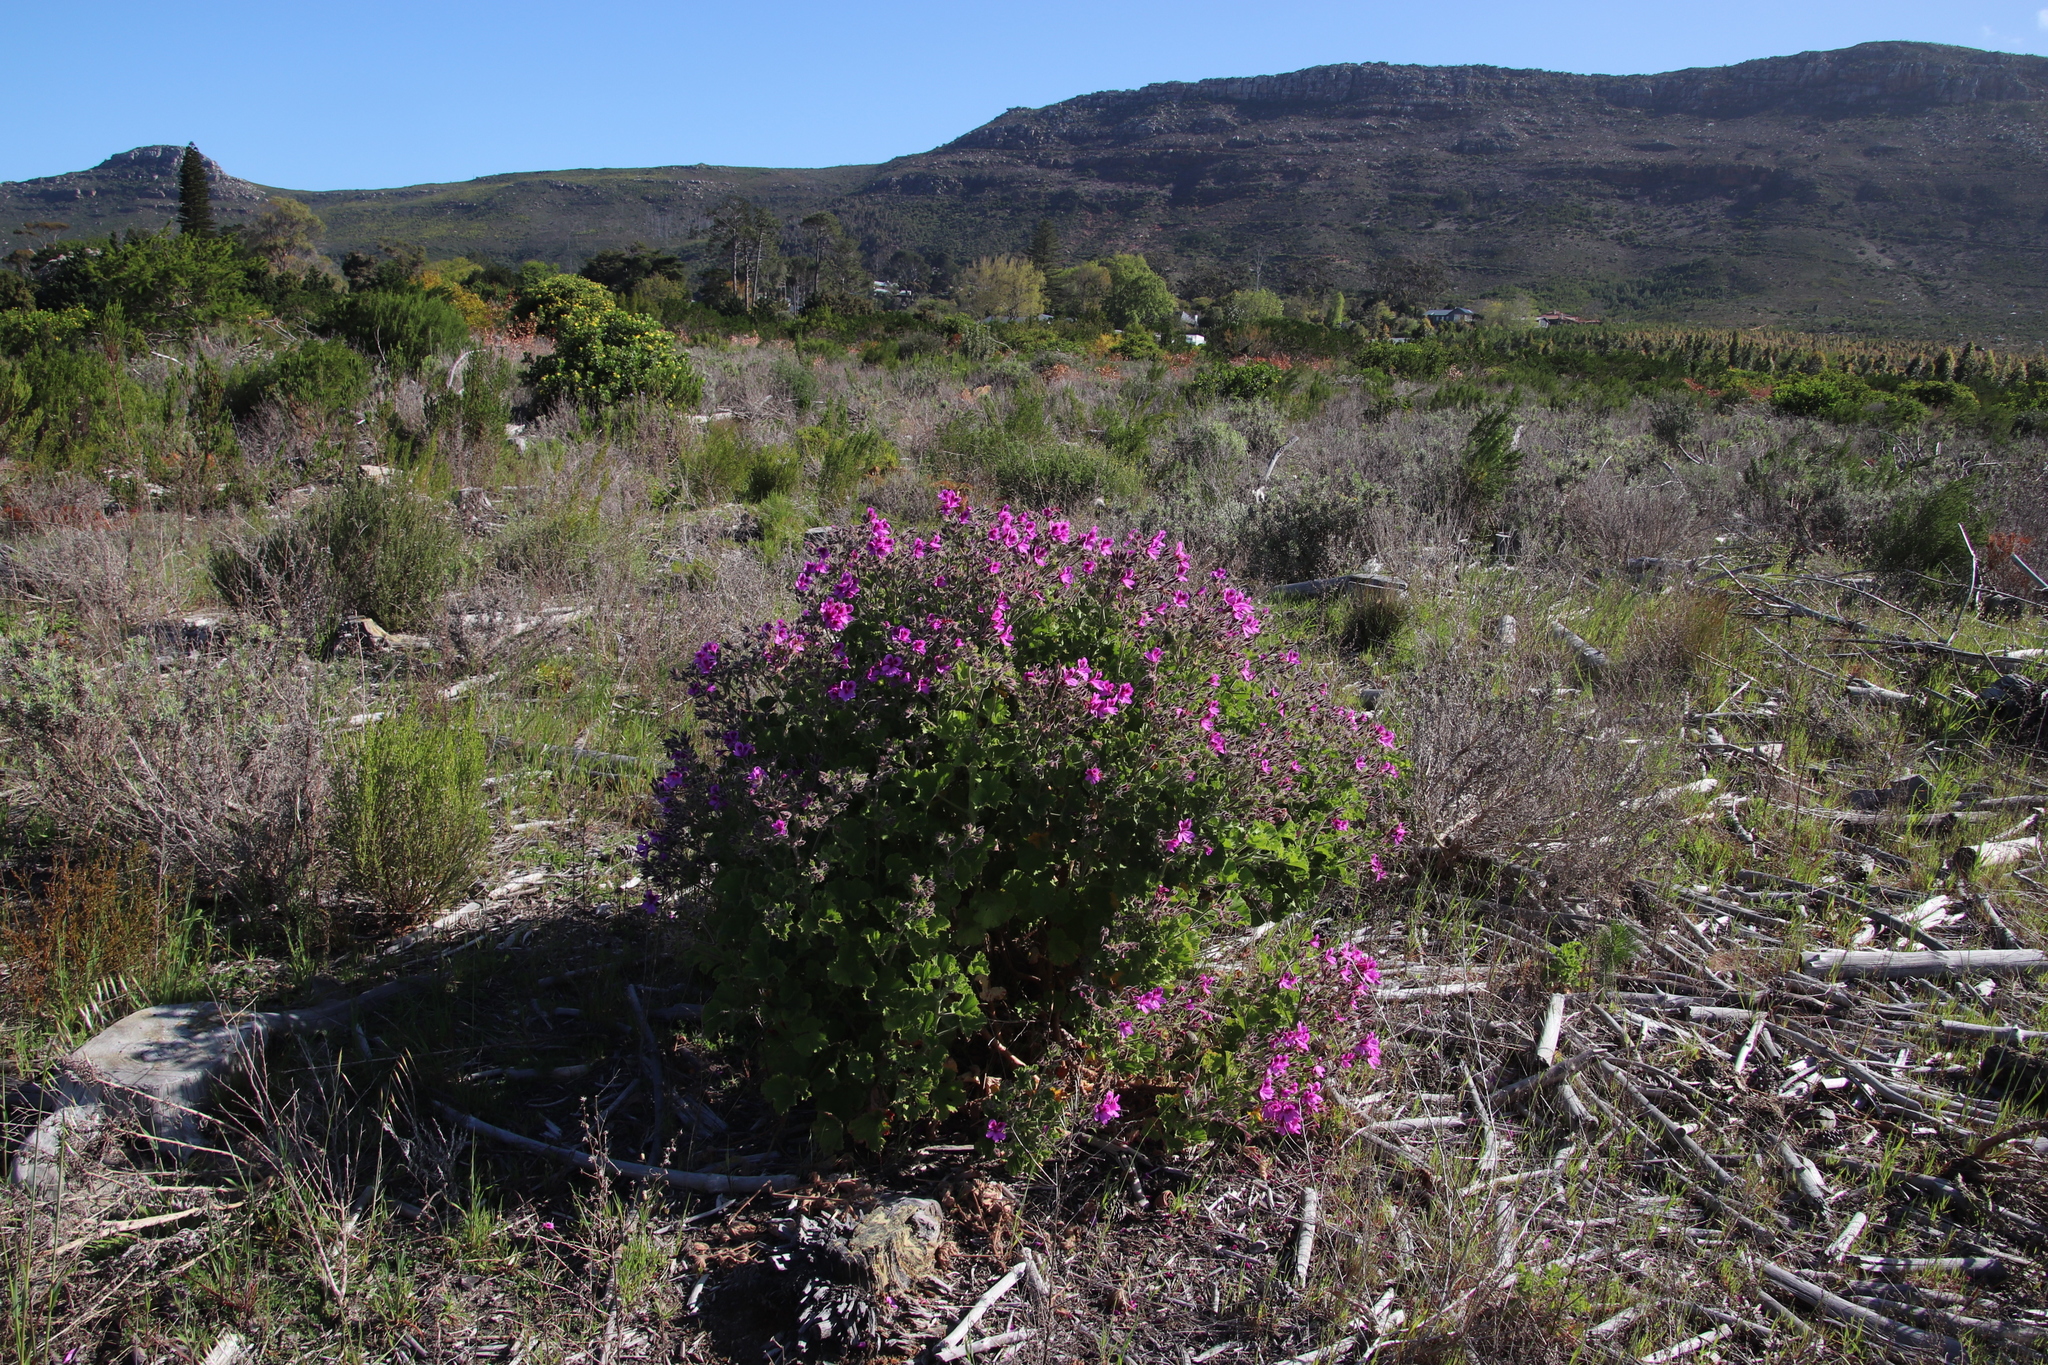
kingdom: Plantae
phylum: Tracheophyta
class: Magnoliopsida
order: Geraniales
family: Geraniaceae
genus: Pelargonium
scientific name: Pelargonium cucullatum
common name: Tree pelargonium
